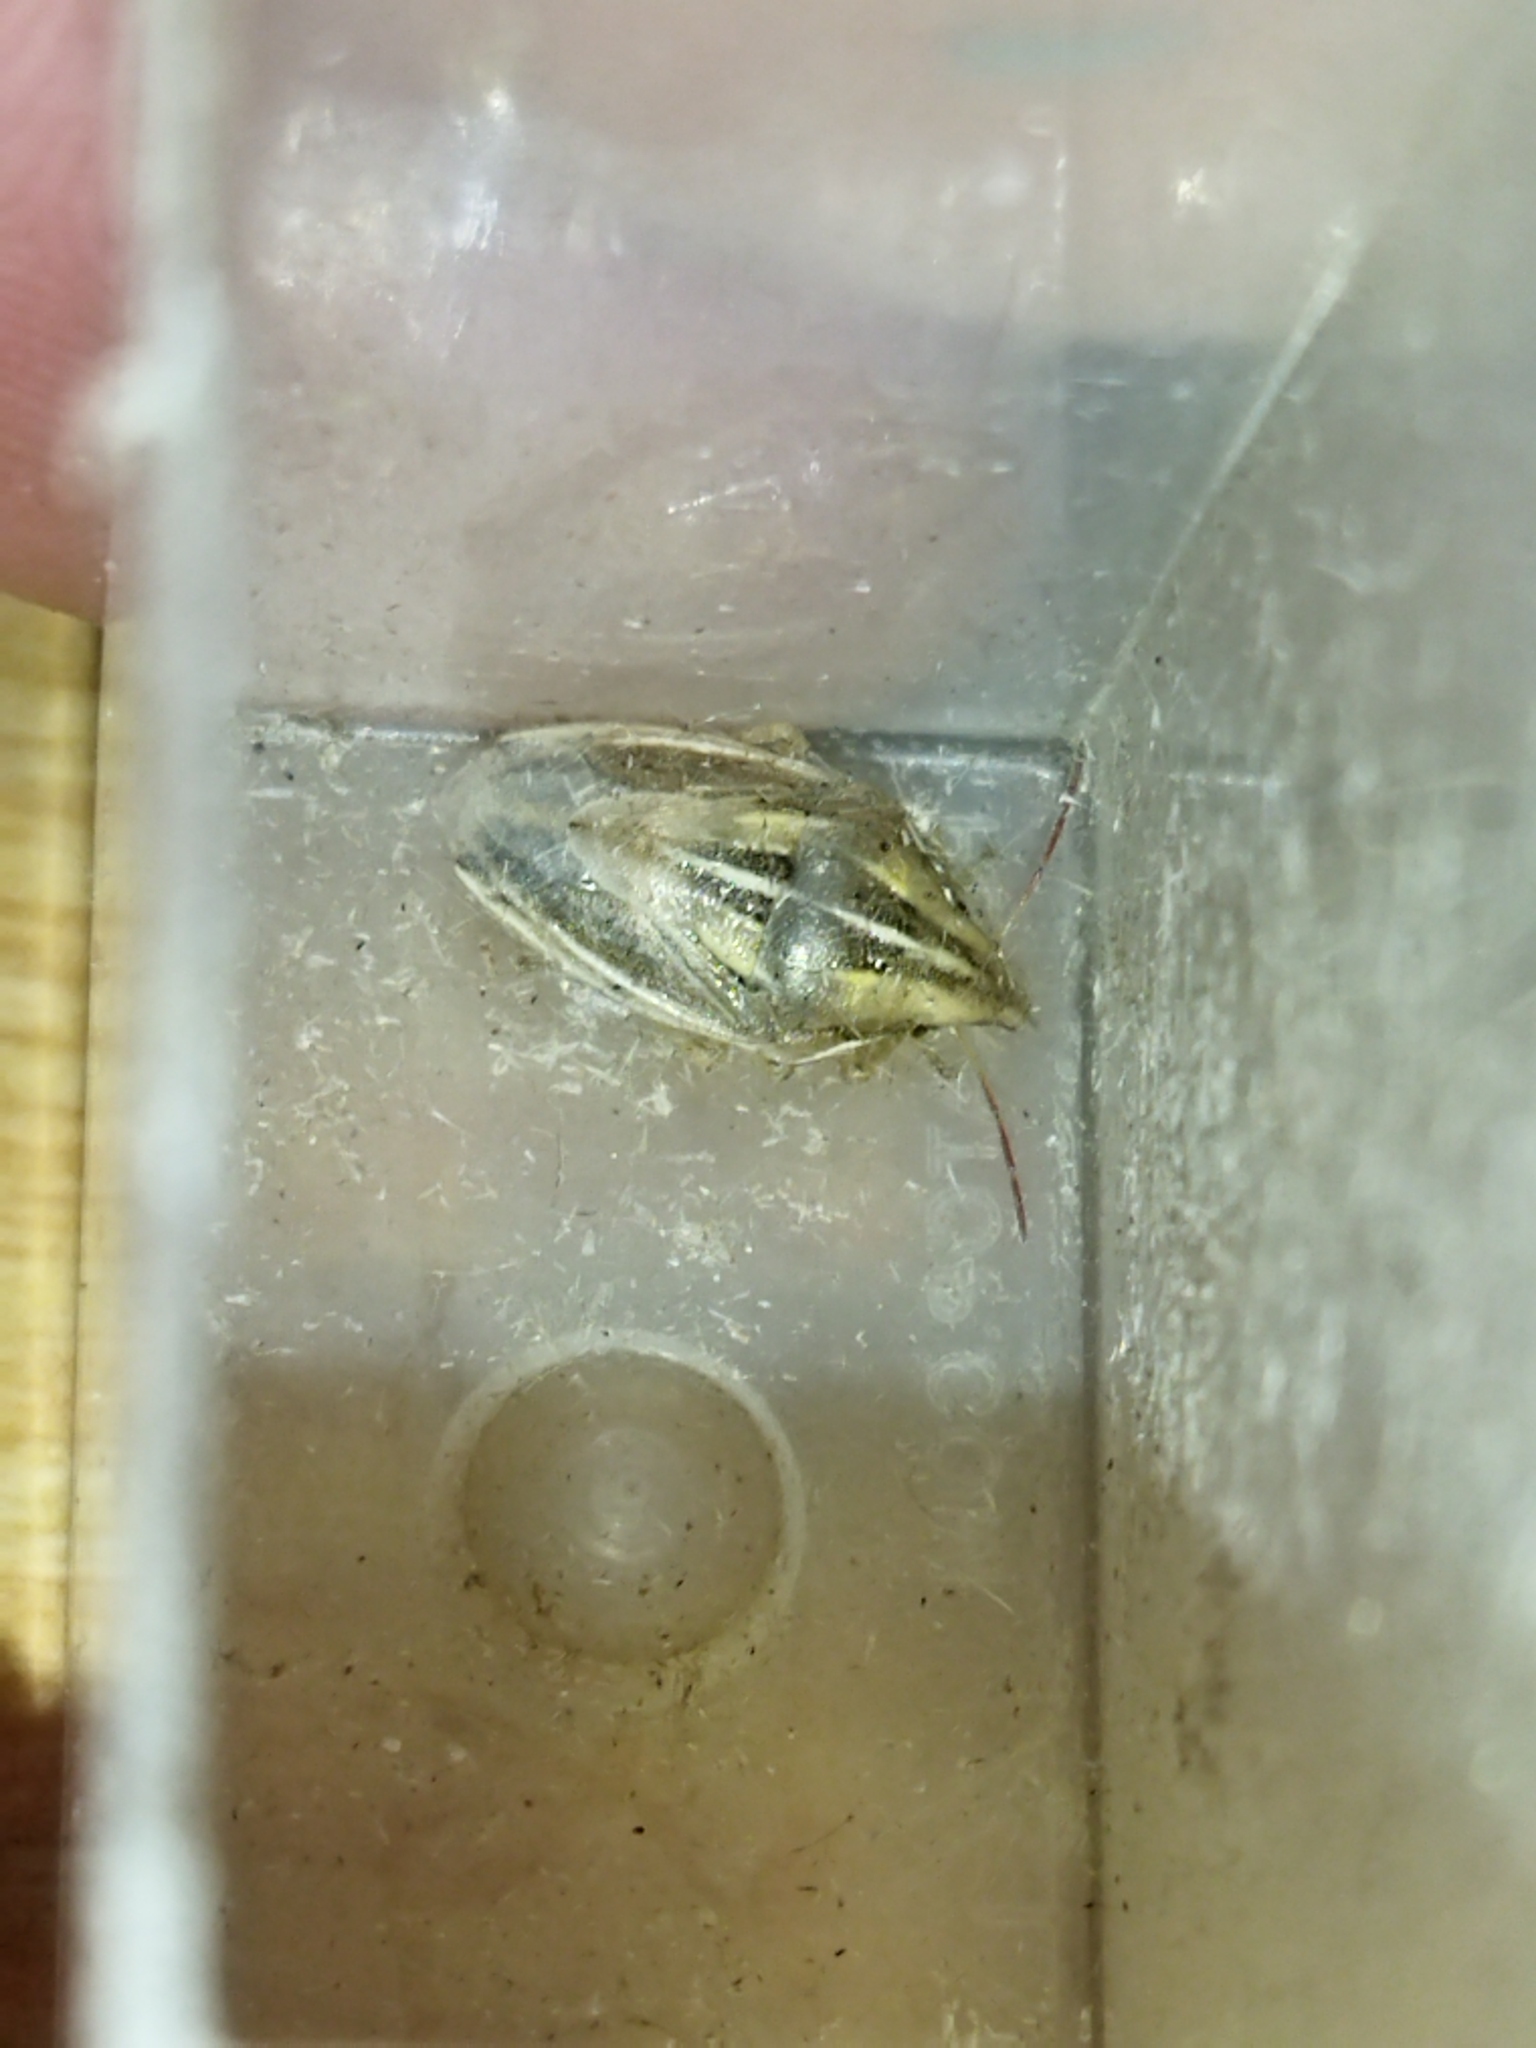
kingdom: Animalia
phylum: Arthropoda
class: Insecta
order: Hemiptera
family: Pentatomidae
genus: Aelia
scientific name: Aelia rostrata
